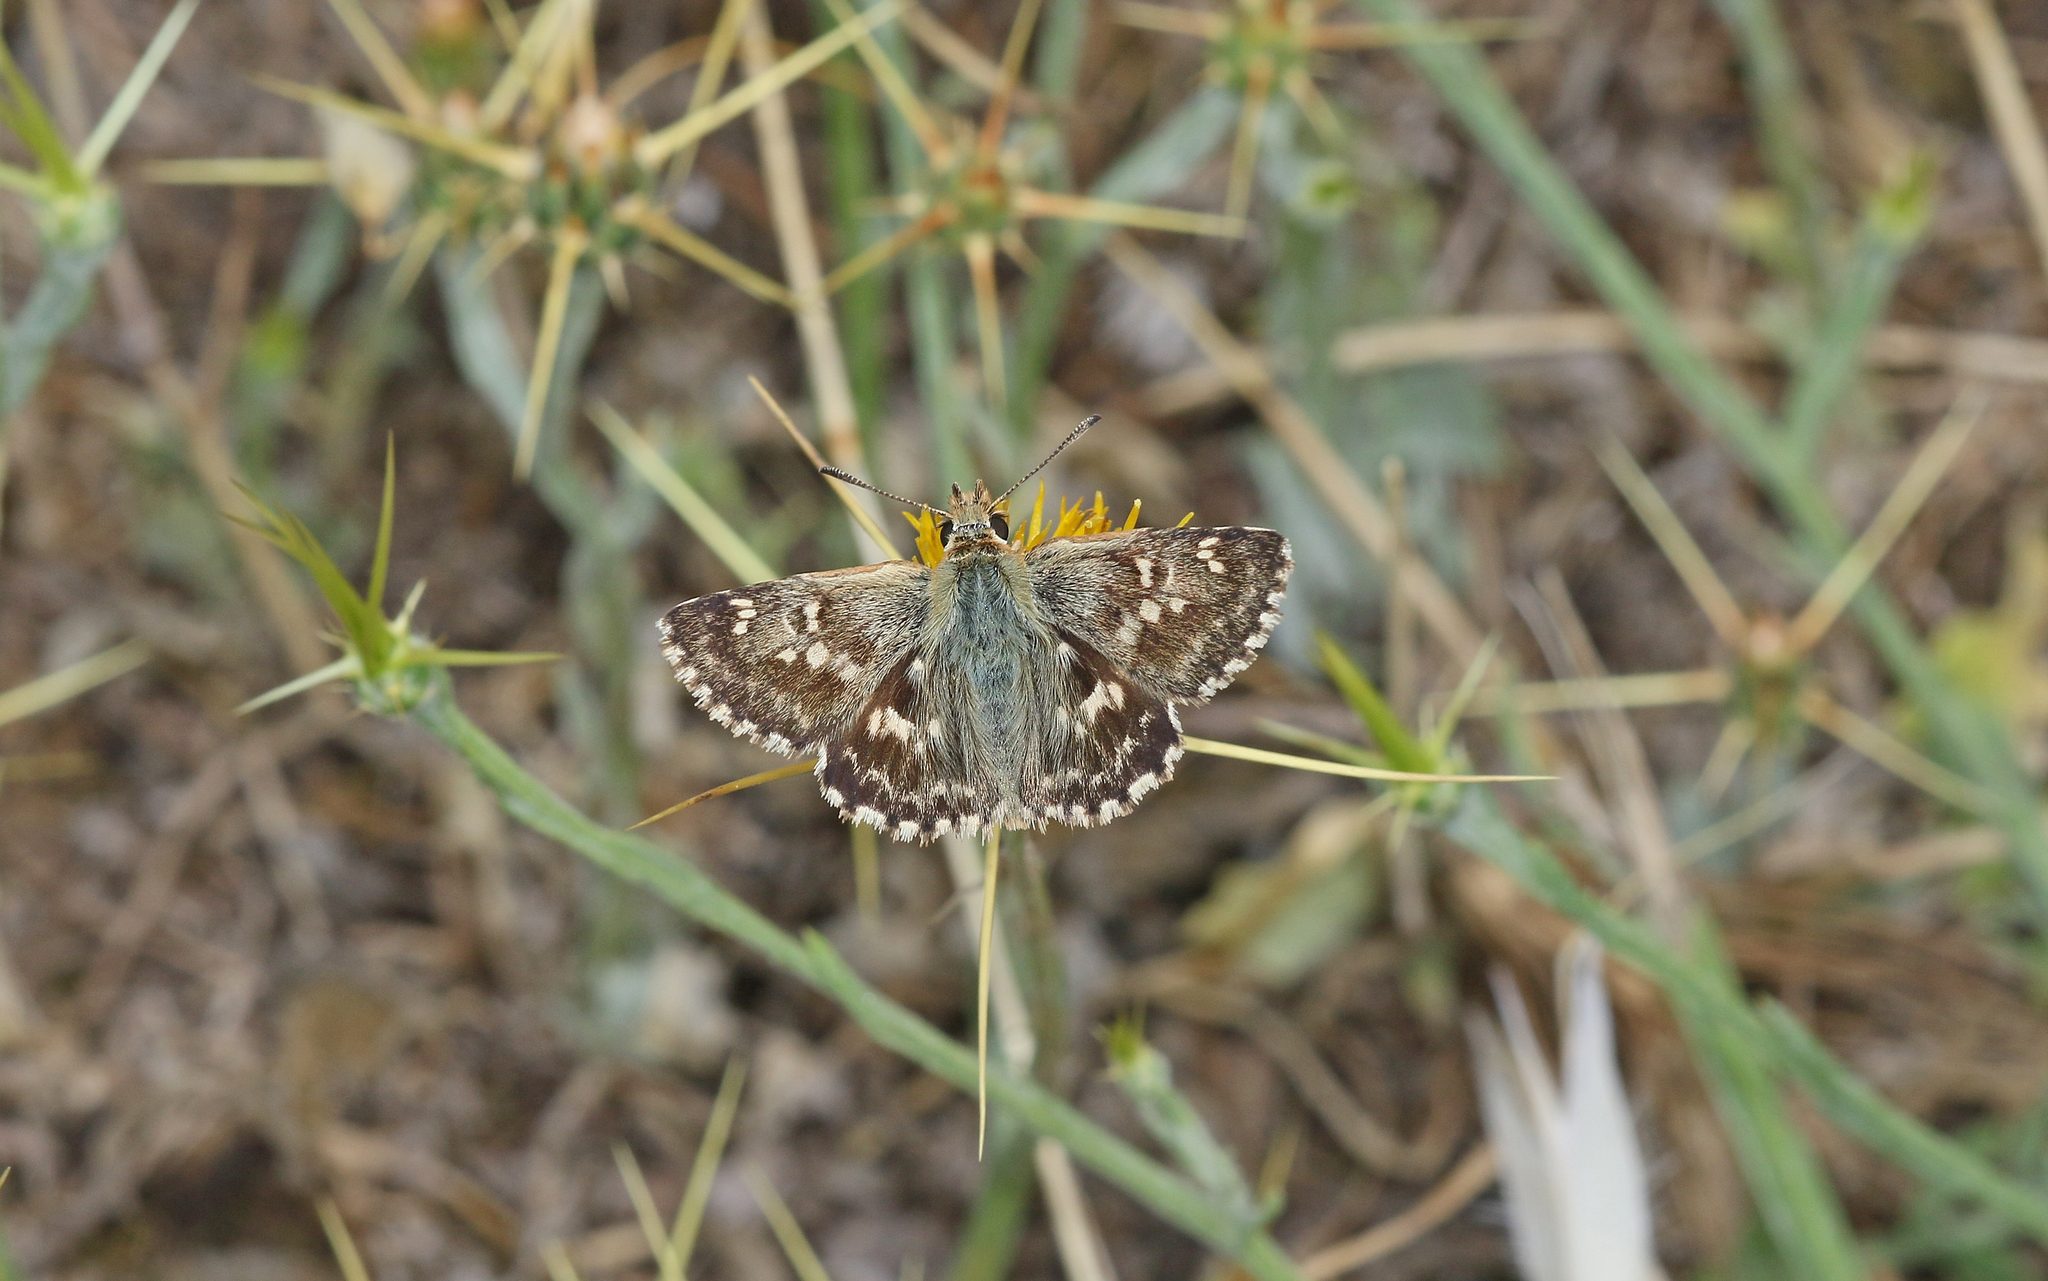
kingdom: Animalia
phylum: Arthropoda
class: Insecta
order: Lepidoptera
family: Hesperiidae
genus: Syrichtus
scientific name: Syrichtus proto
